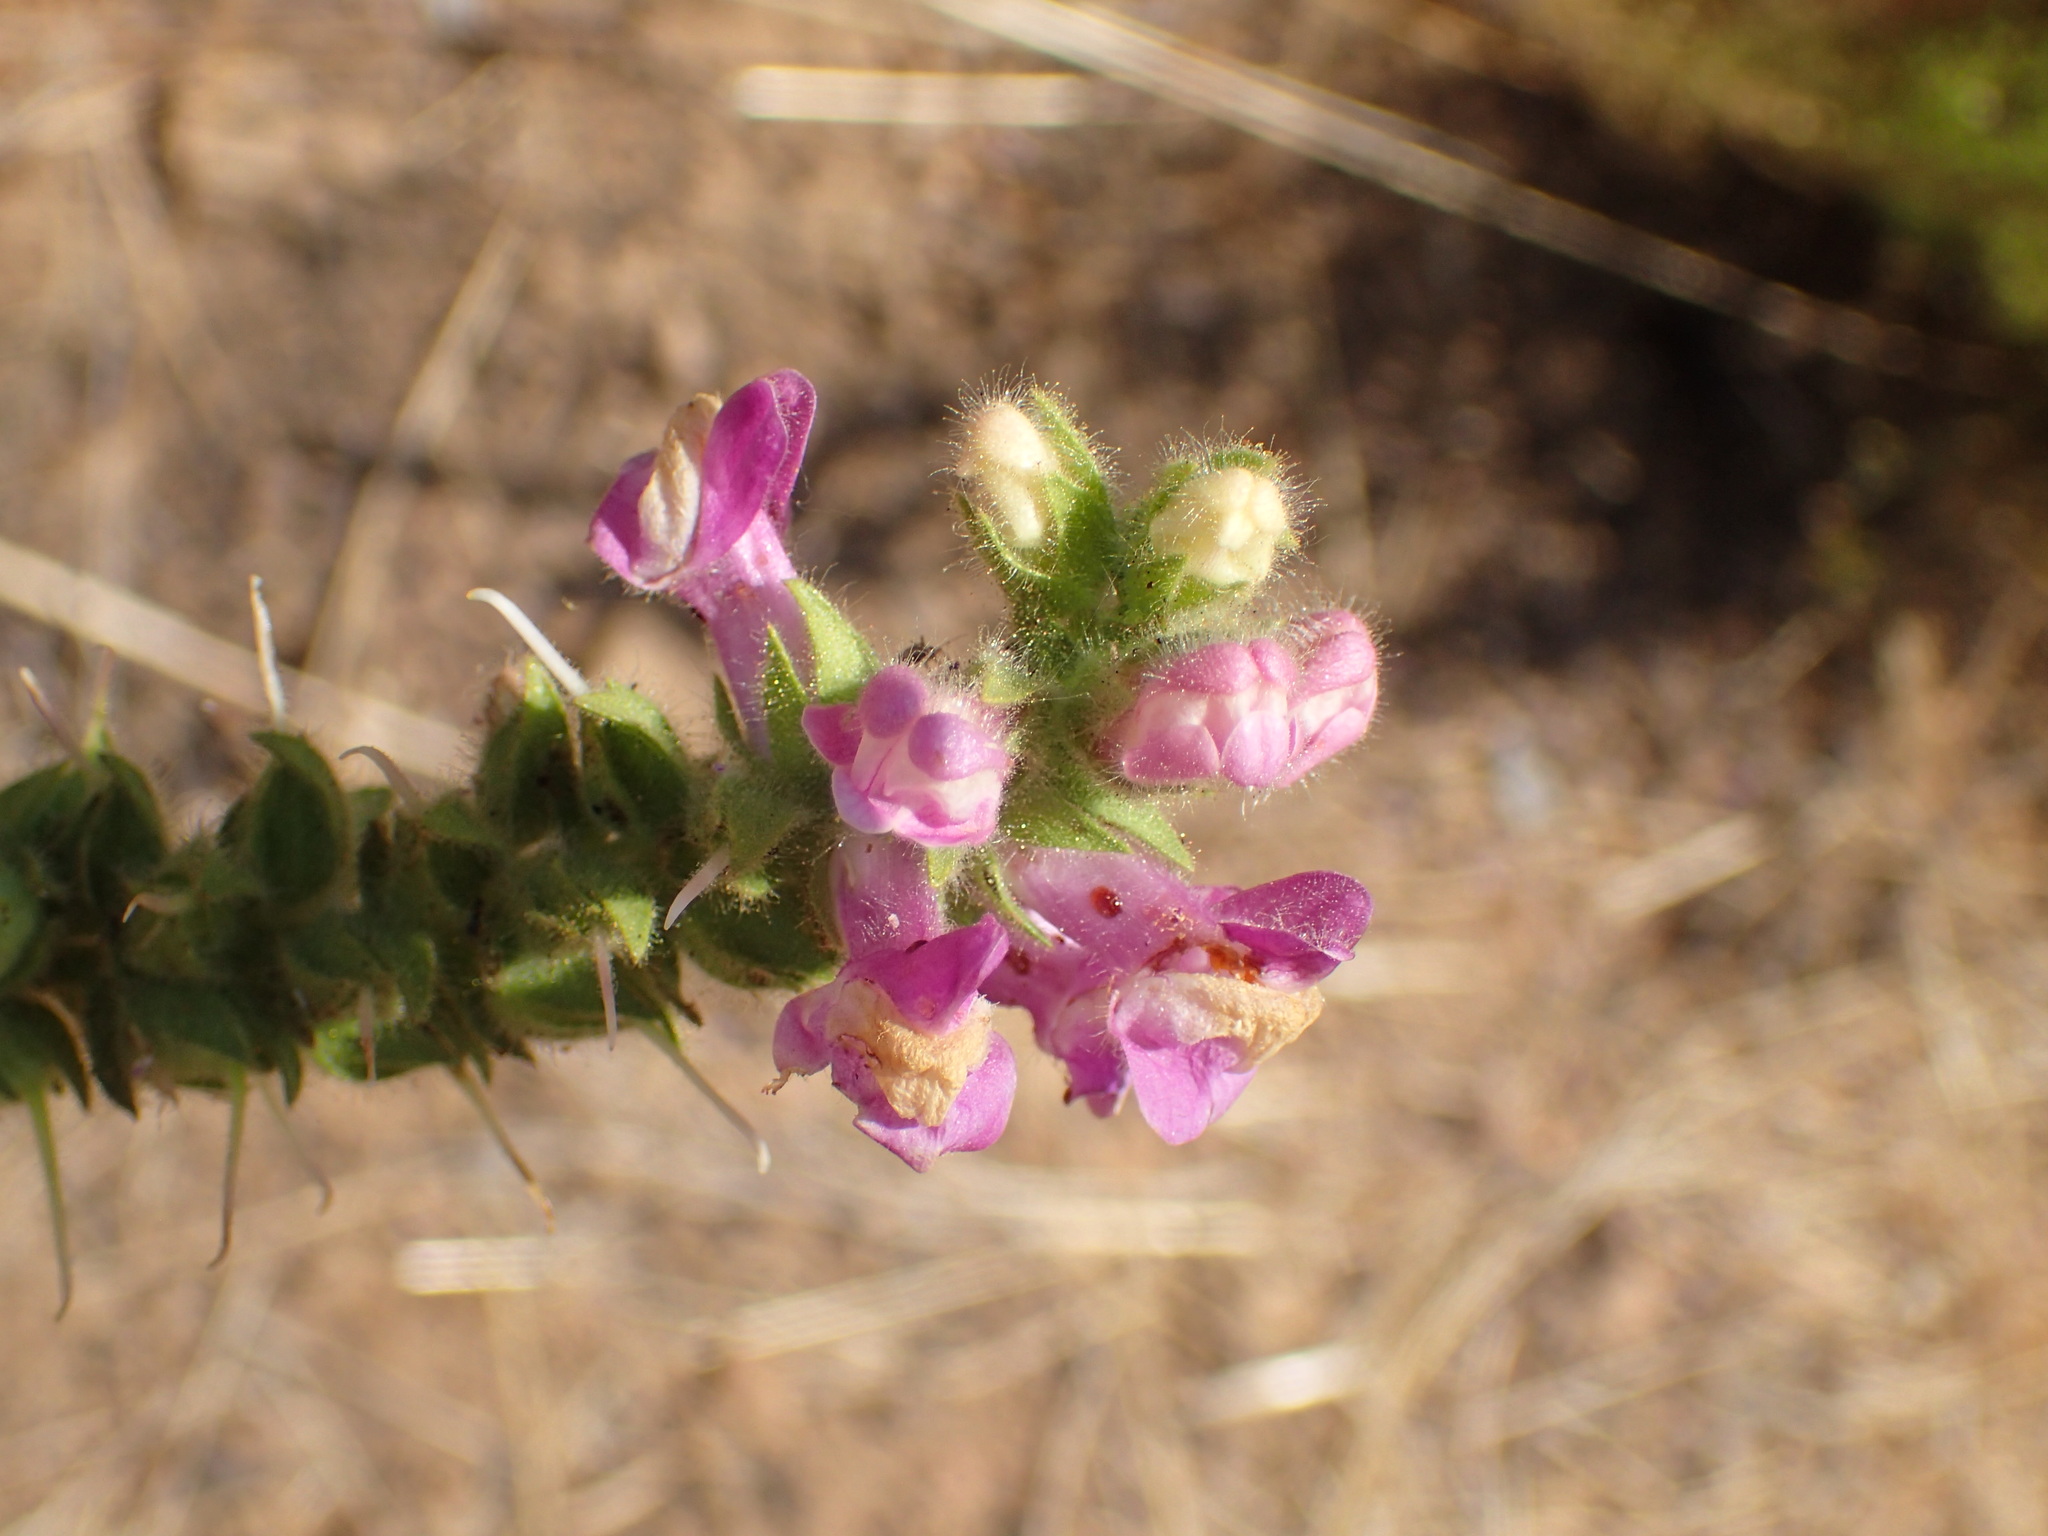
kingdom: Plantae
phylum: Tracheophyta
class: Magnoliopsida
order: Lamiales
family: Plantaginaceae
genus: Sairocarpus
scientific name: Sairocarpus multiflorus
